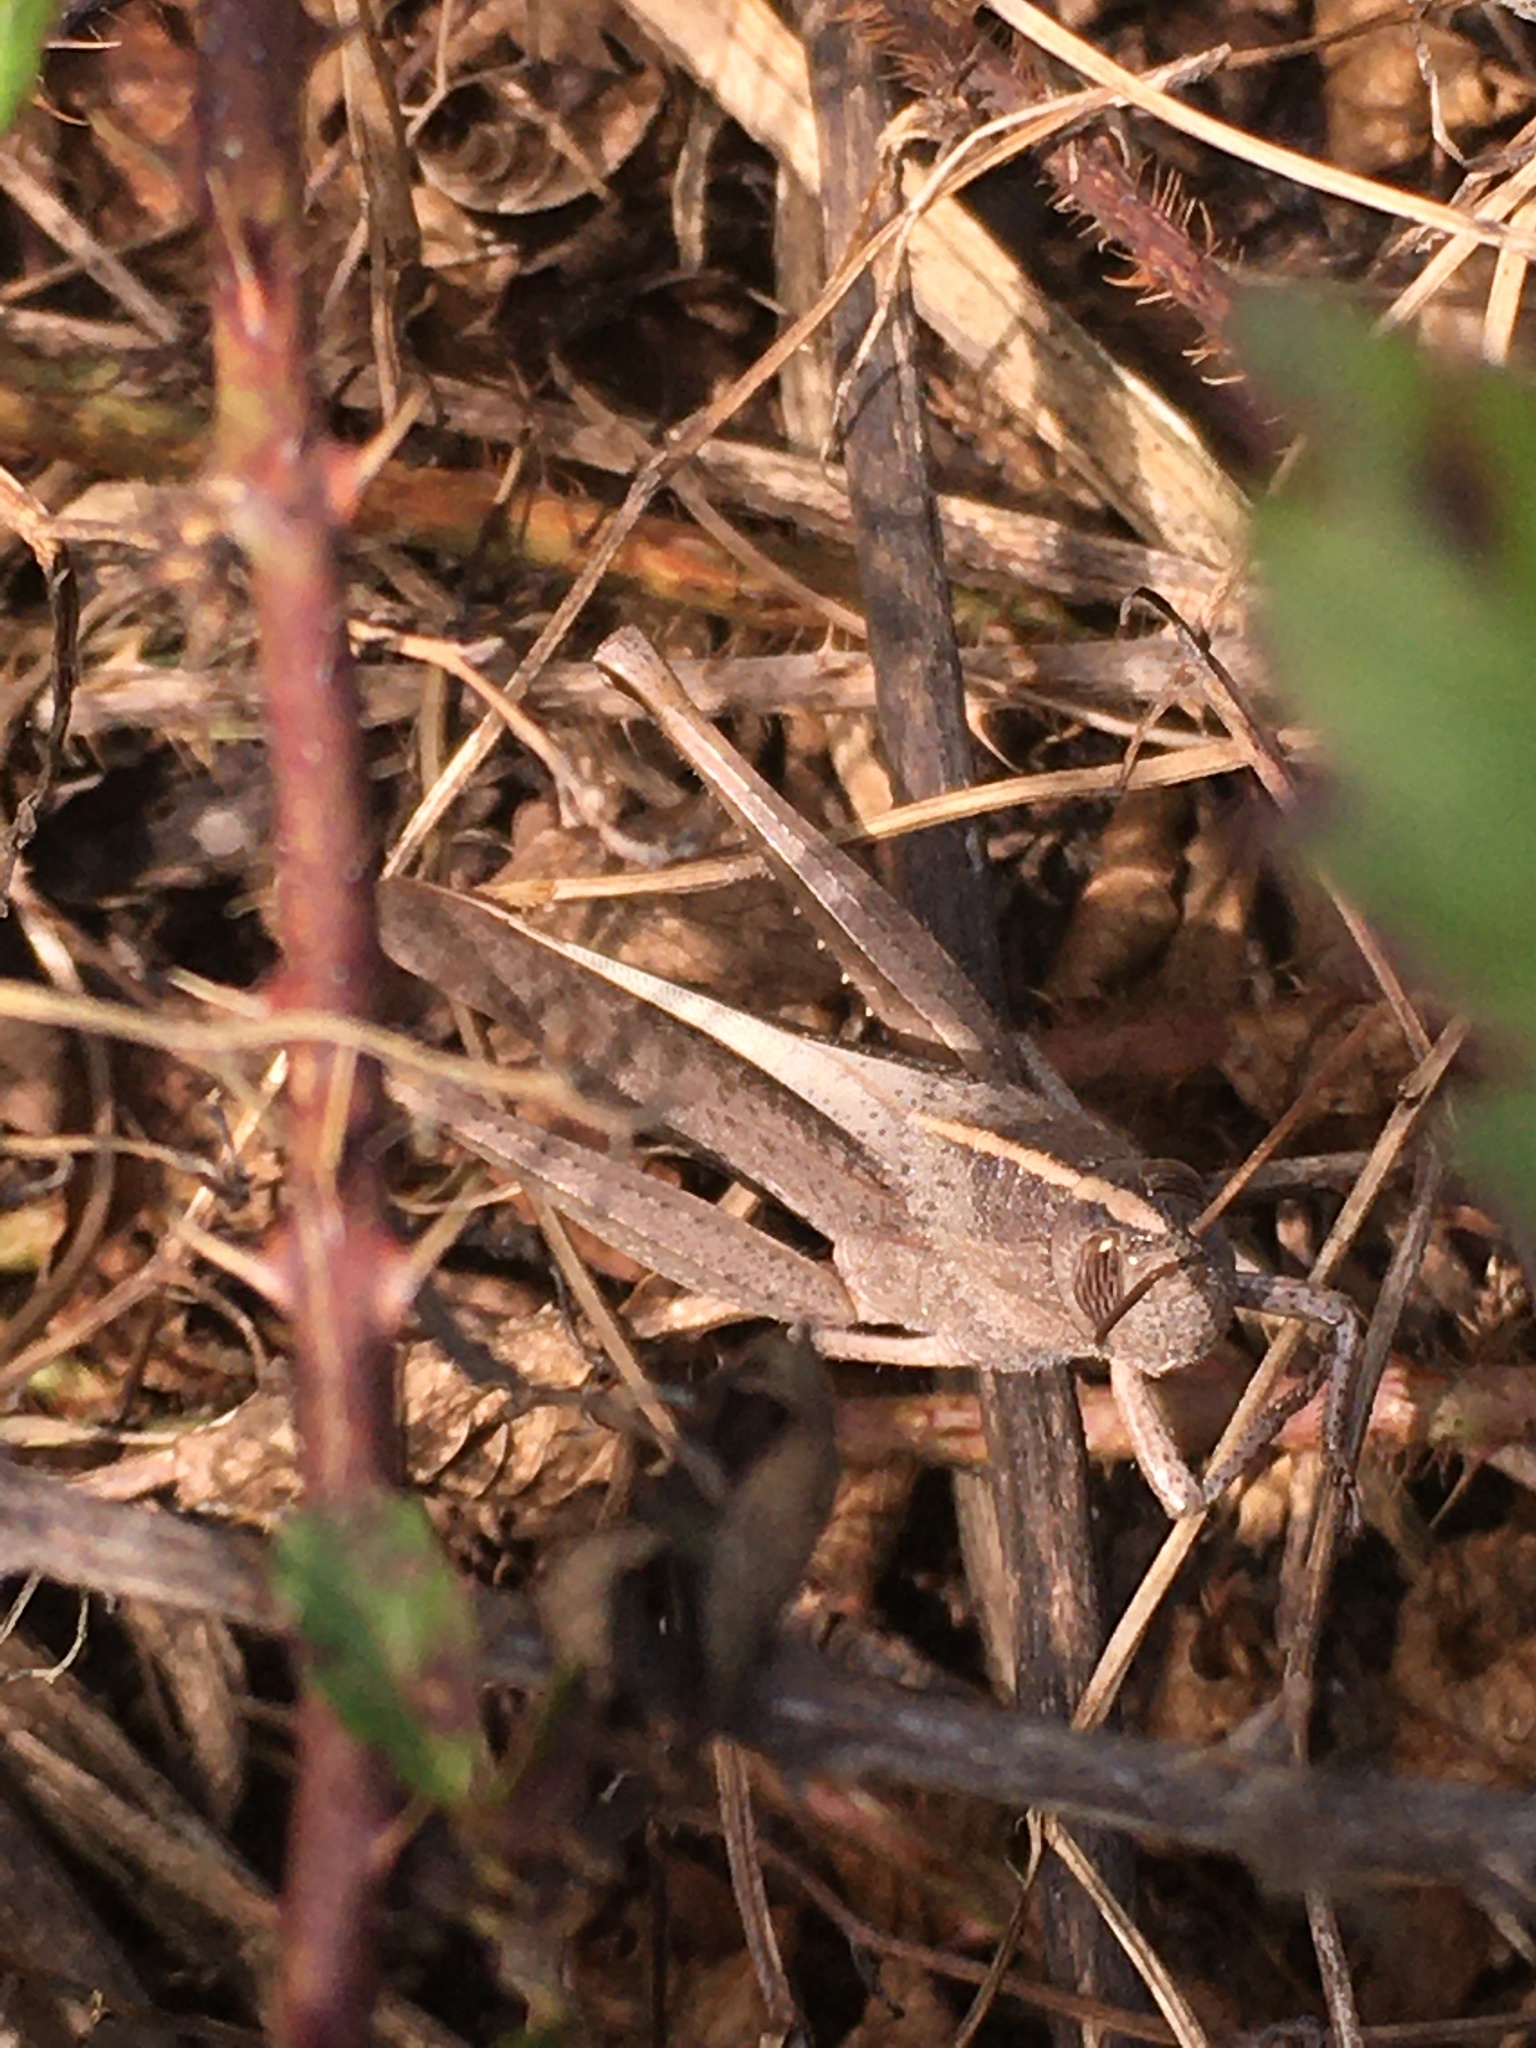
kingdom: Animalia
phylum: Arthropoda
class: Insecta
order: Orthoptera
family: Acrididae
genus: Schistocerca
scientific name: Schistocerca damnifica
